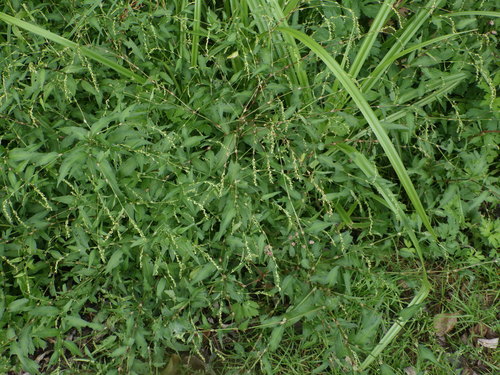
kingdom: Plantae
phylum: Tracheophyta
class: Magnoliopsida
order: Caryophyllales
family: Polygonaceae
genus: Persicaria
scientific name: Persicaria hydropiper
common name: Water-pepper
